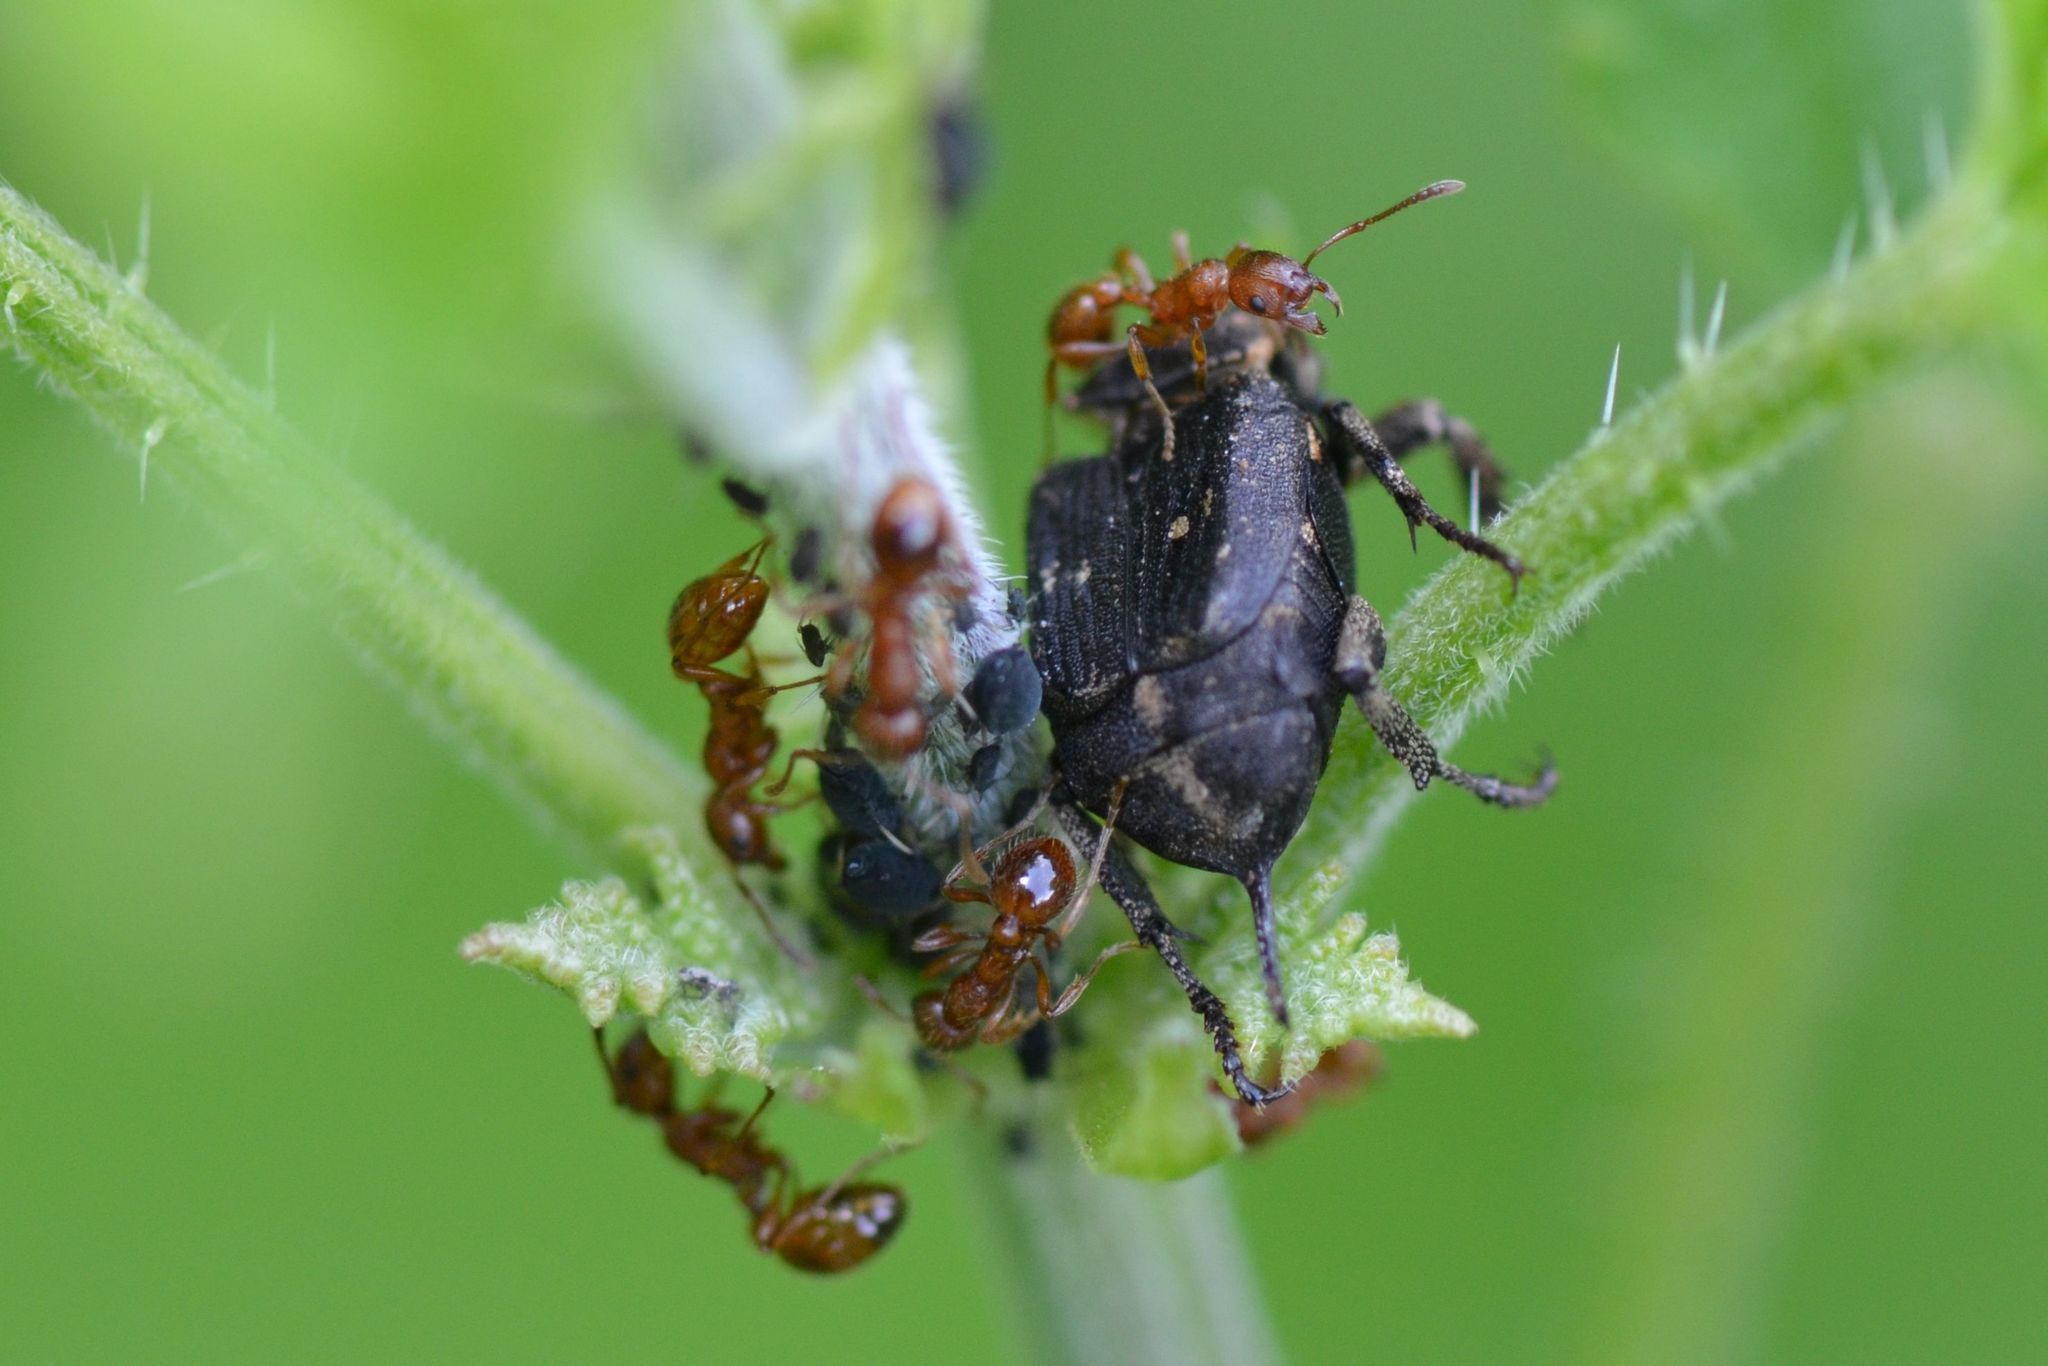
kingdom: Animalia
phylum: Arthropoda
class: Insecta
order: Coleoptera
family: Scarabaeidae
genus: Valgus
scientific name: Valgus hemipterus
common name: Bug flower chafer
